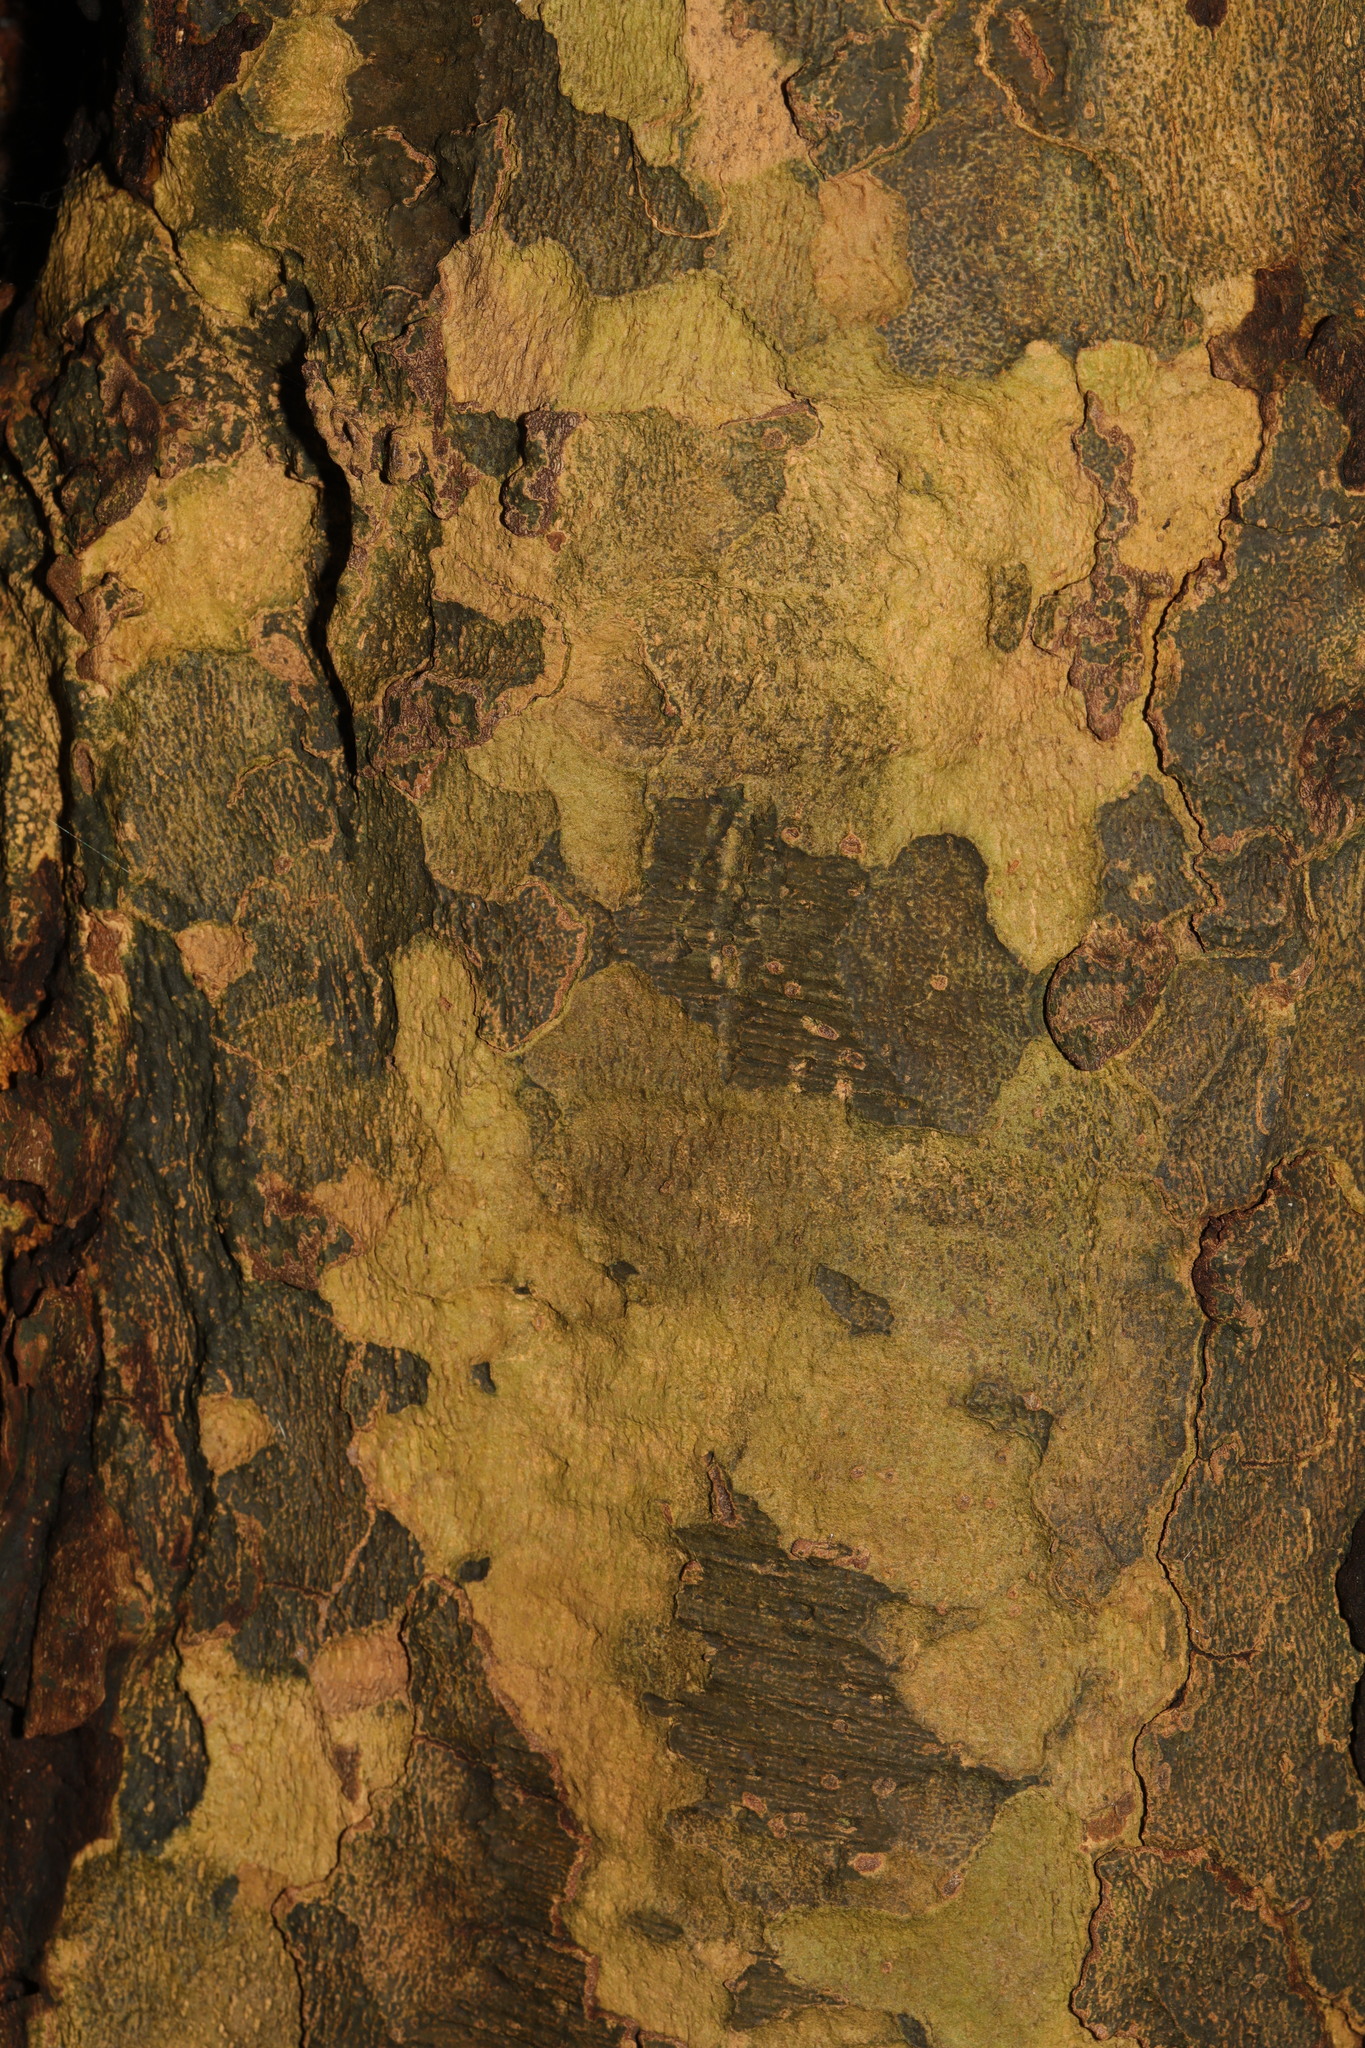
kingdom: Plantae
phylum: Tracheophyta
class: Magnoliopsida
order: Proteales
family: Platanaceae
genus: Platanus
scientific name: Platanus hispanica
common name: London plane
